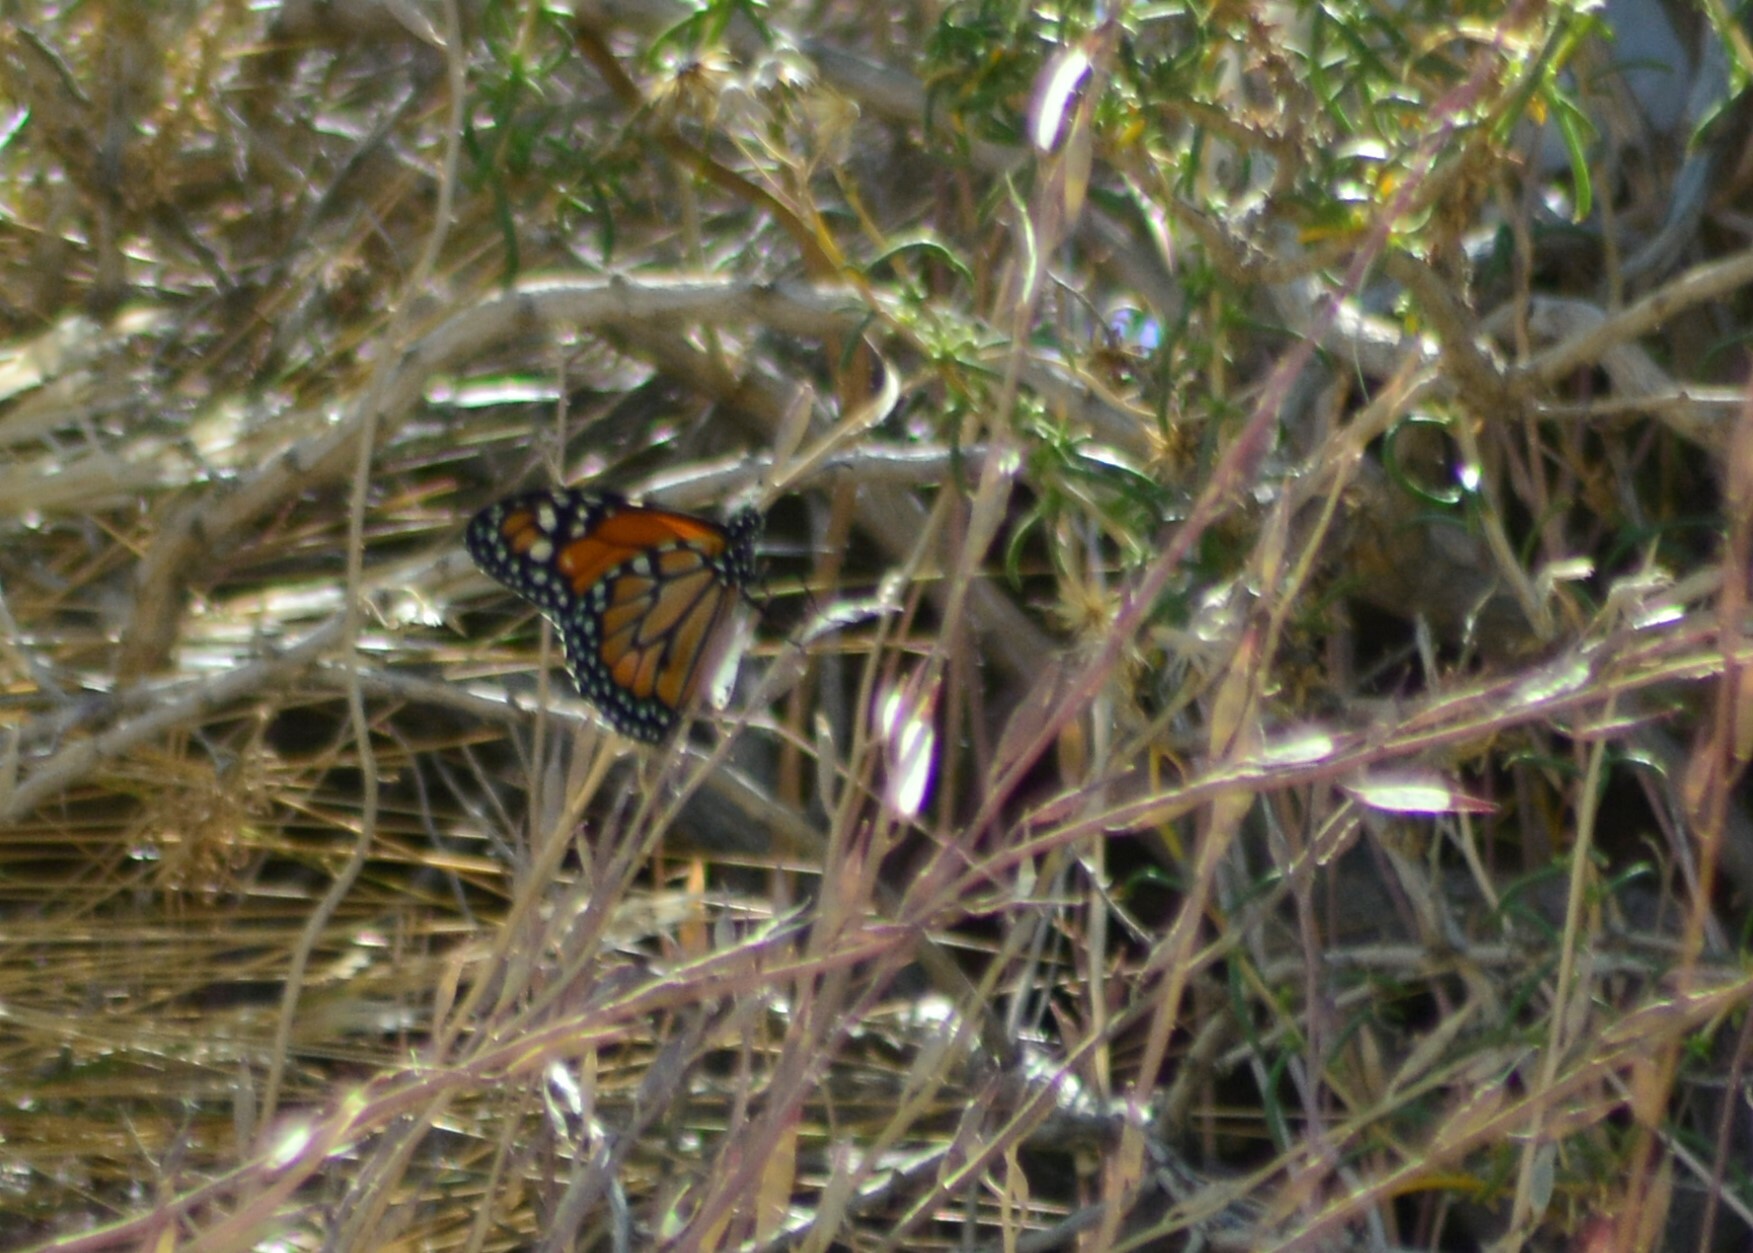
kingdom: Animalia
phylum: Arthropoda
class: Insecta
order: Lepidoptera
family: Nymphalidae
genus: Danaus
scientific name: Danaus erippus
